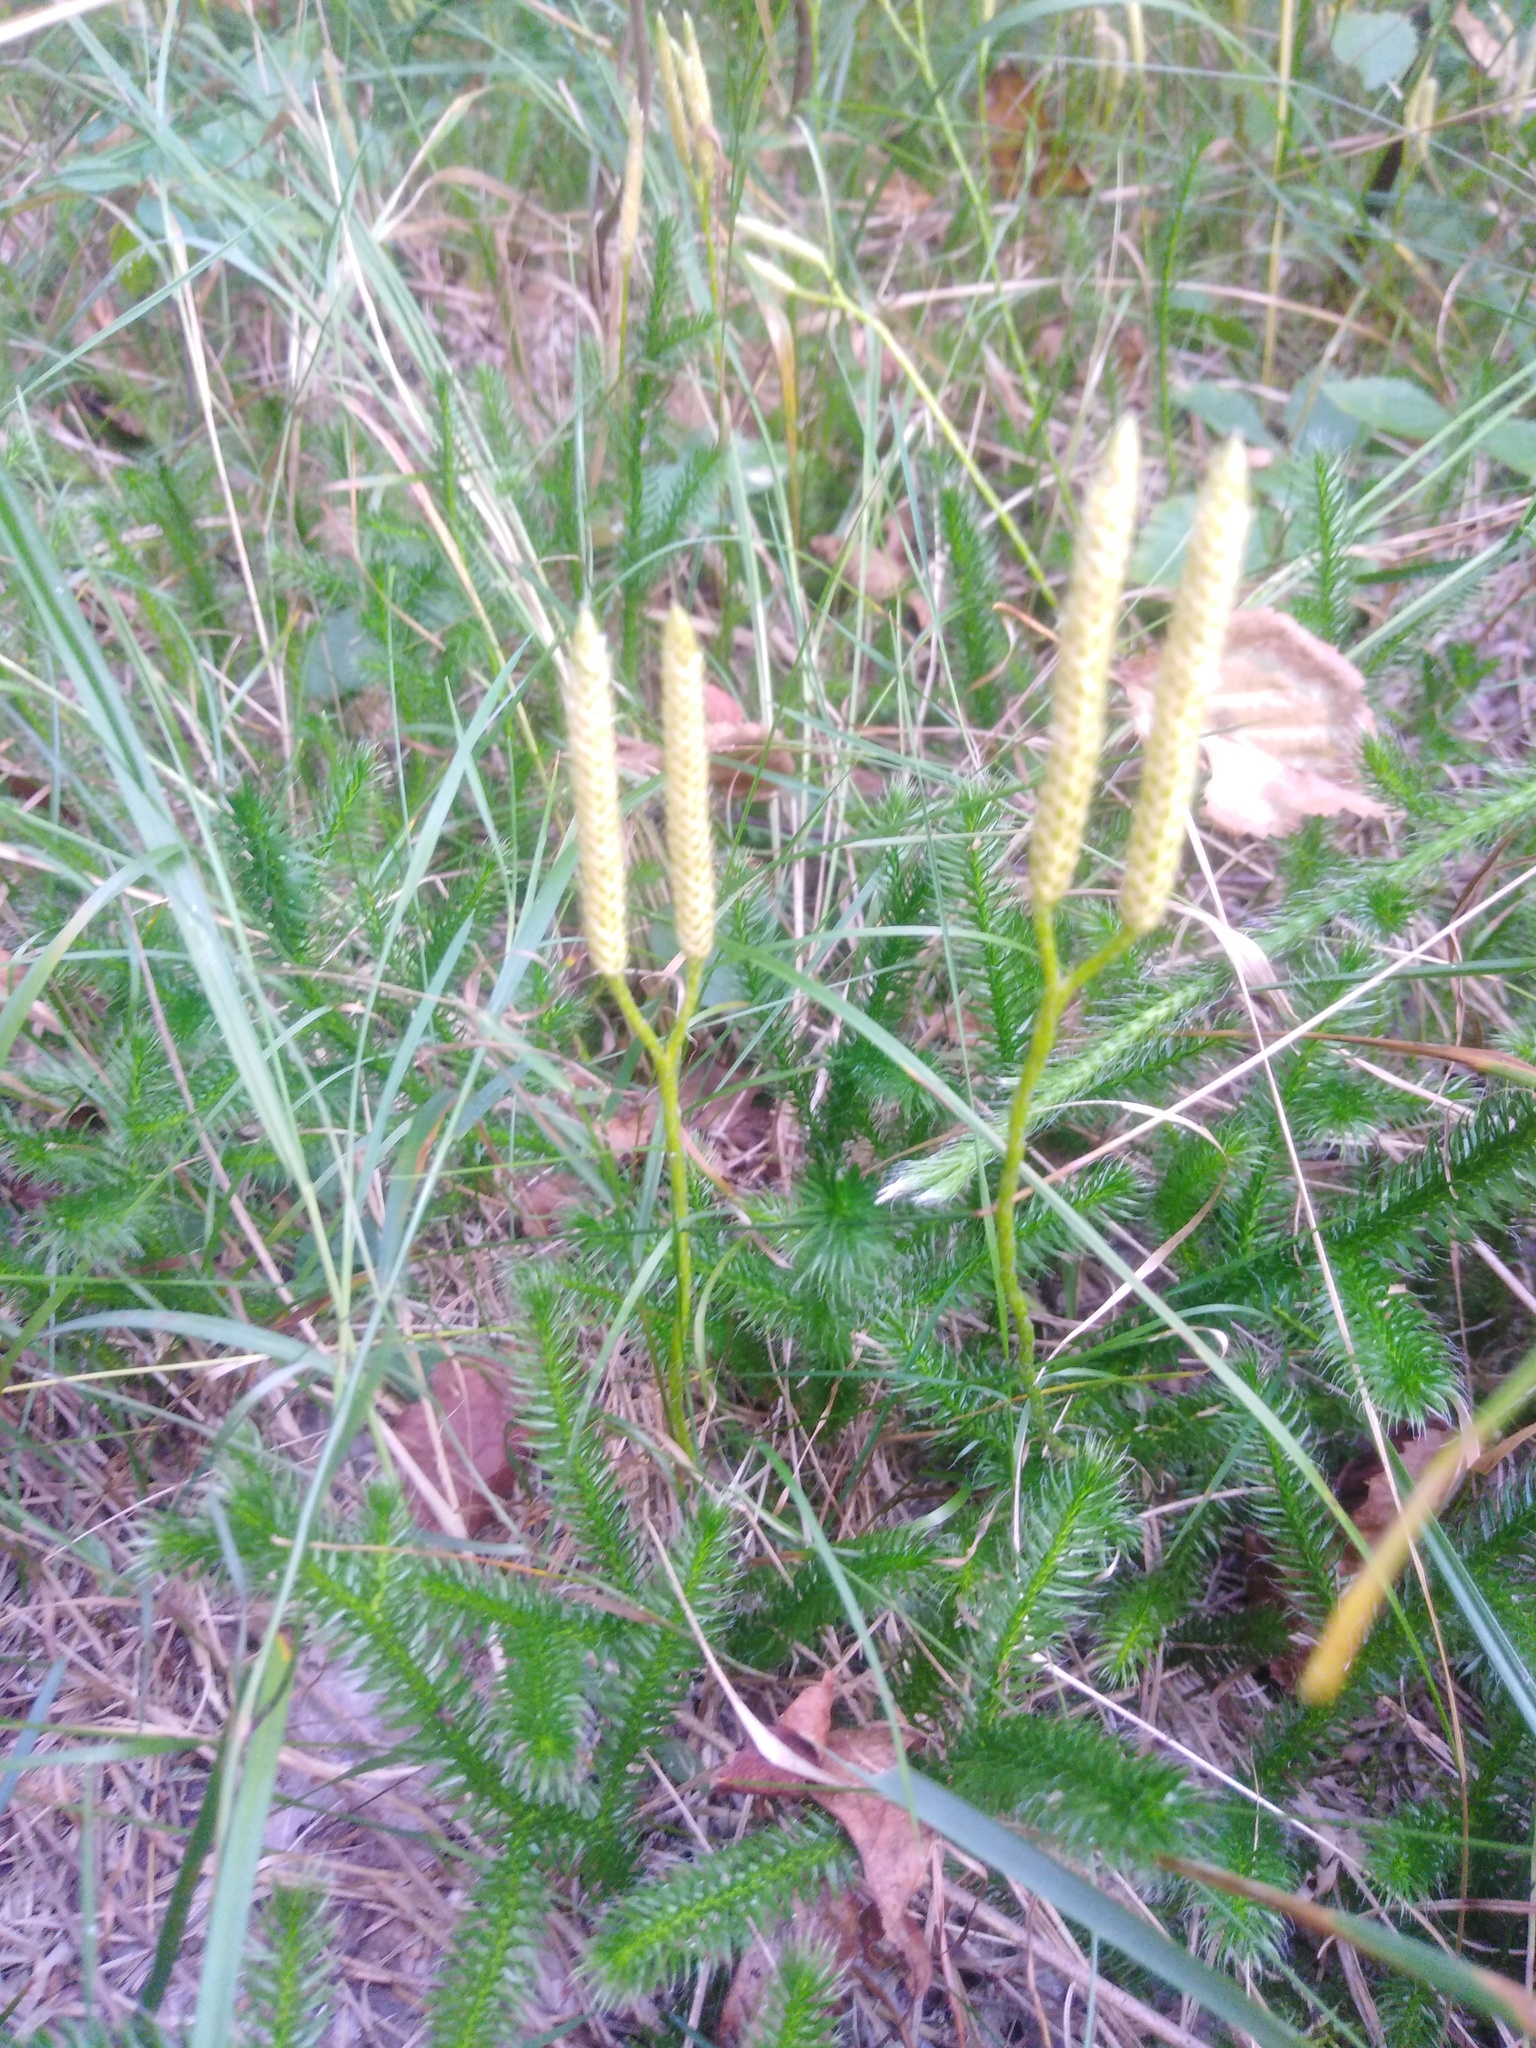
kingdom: Plantae
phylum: Tracheophyta
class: Lycopodiopsida
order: Lycopodiales
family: Lycopodiaceae
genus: Lycopodium
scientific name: Lycopodium clavatum
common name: Stag's-horn clubmoss
